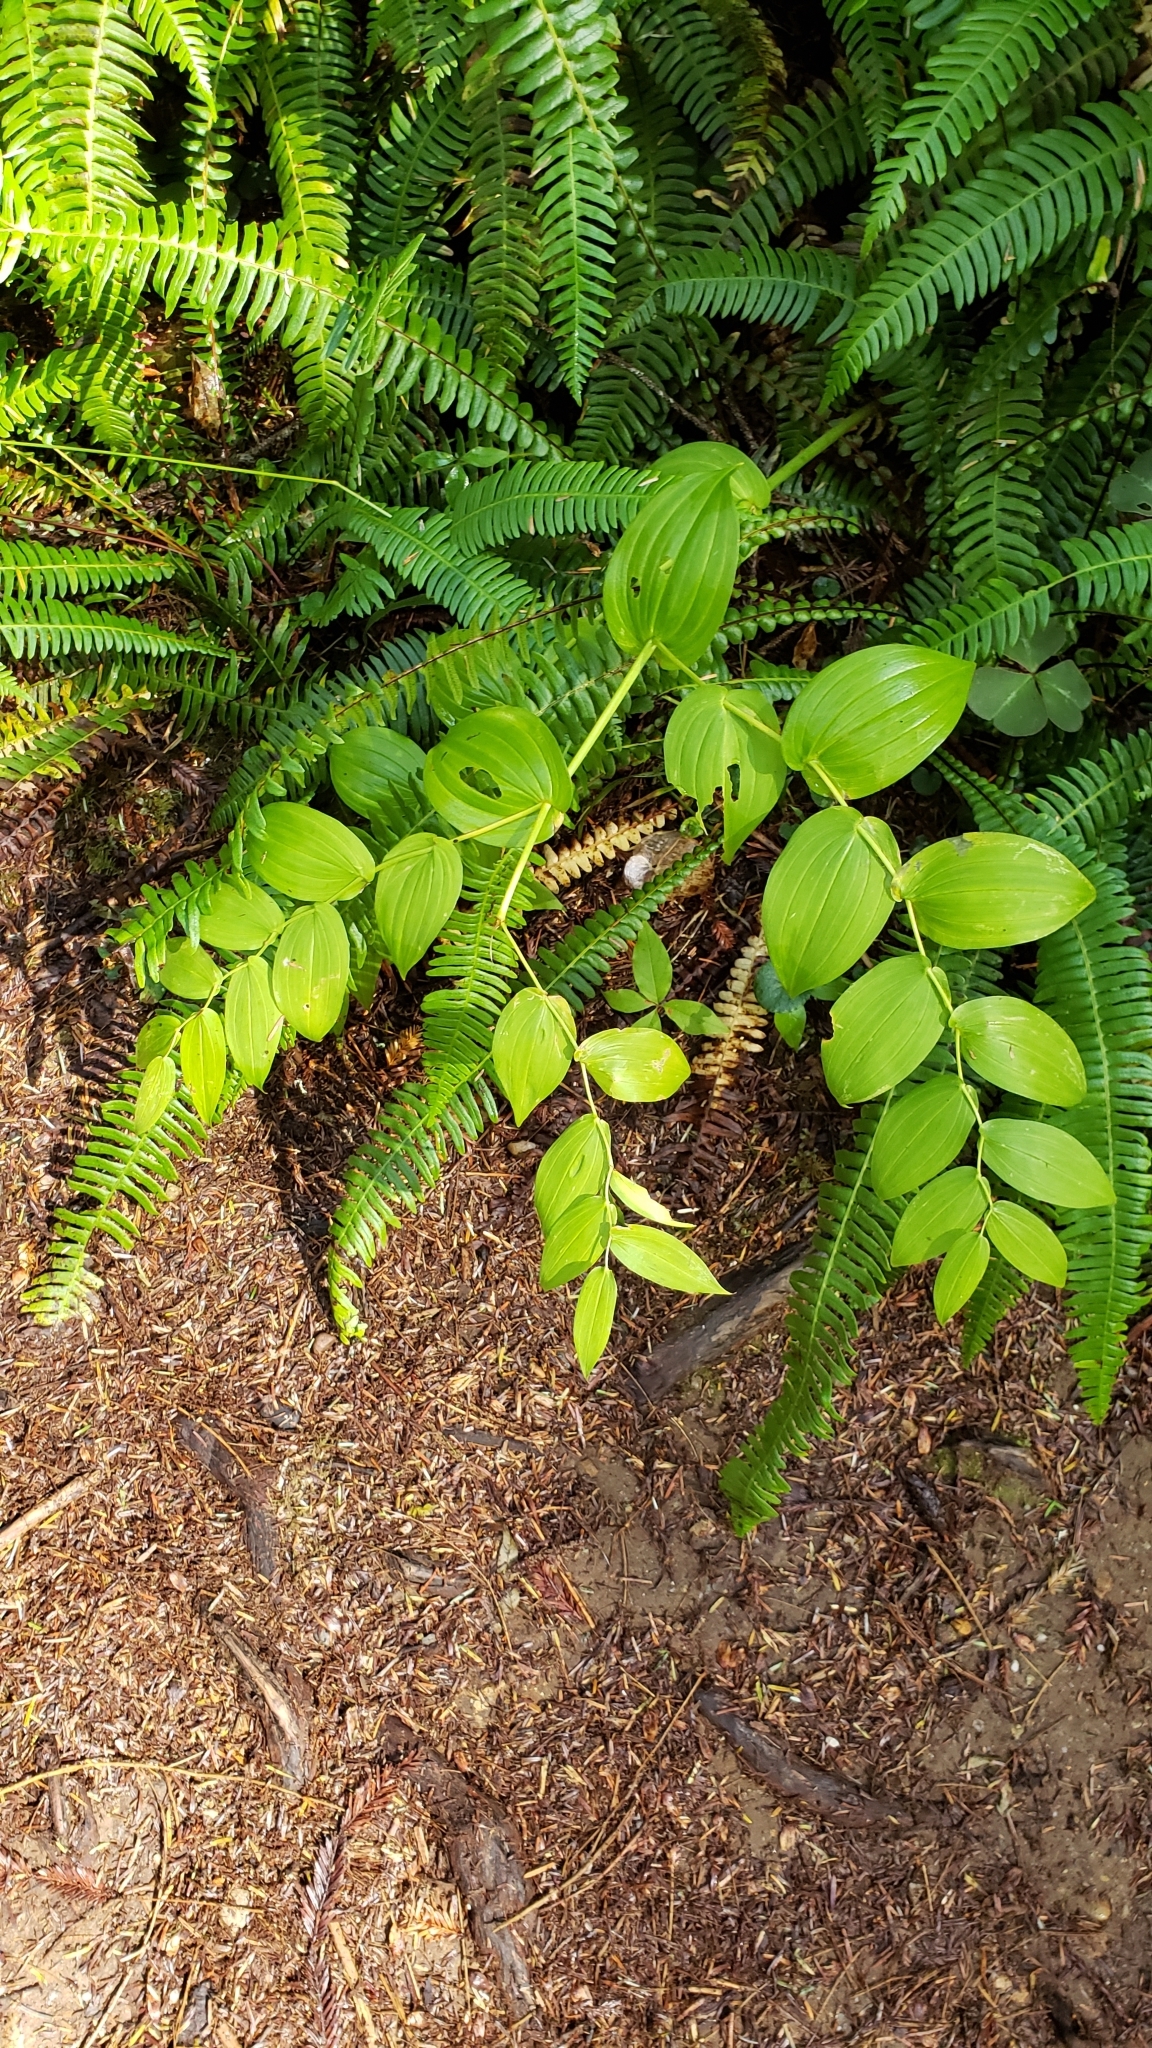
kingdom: Plantae
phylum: Tracheophyta
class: Liliopsida
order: Liliales
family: Liliaceae
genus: Streptopus
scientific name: Streptopus amplexifolius
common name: Clasp twisted stalk
